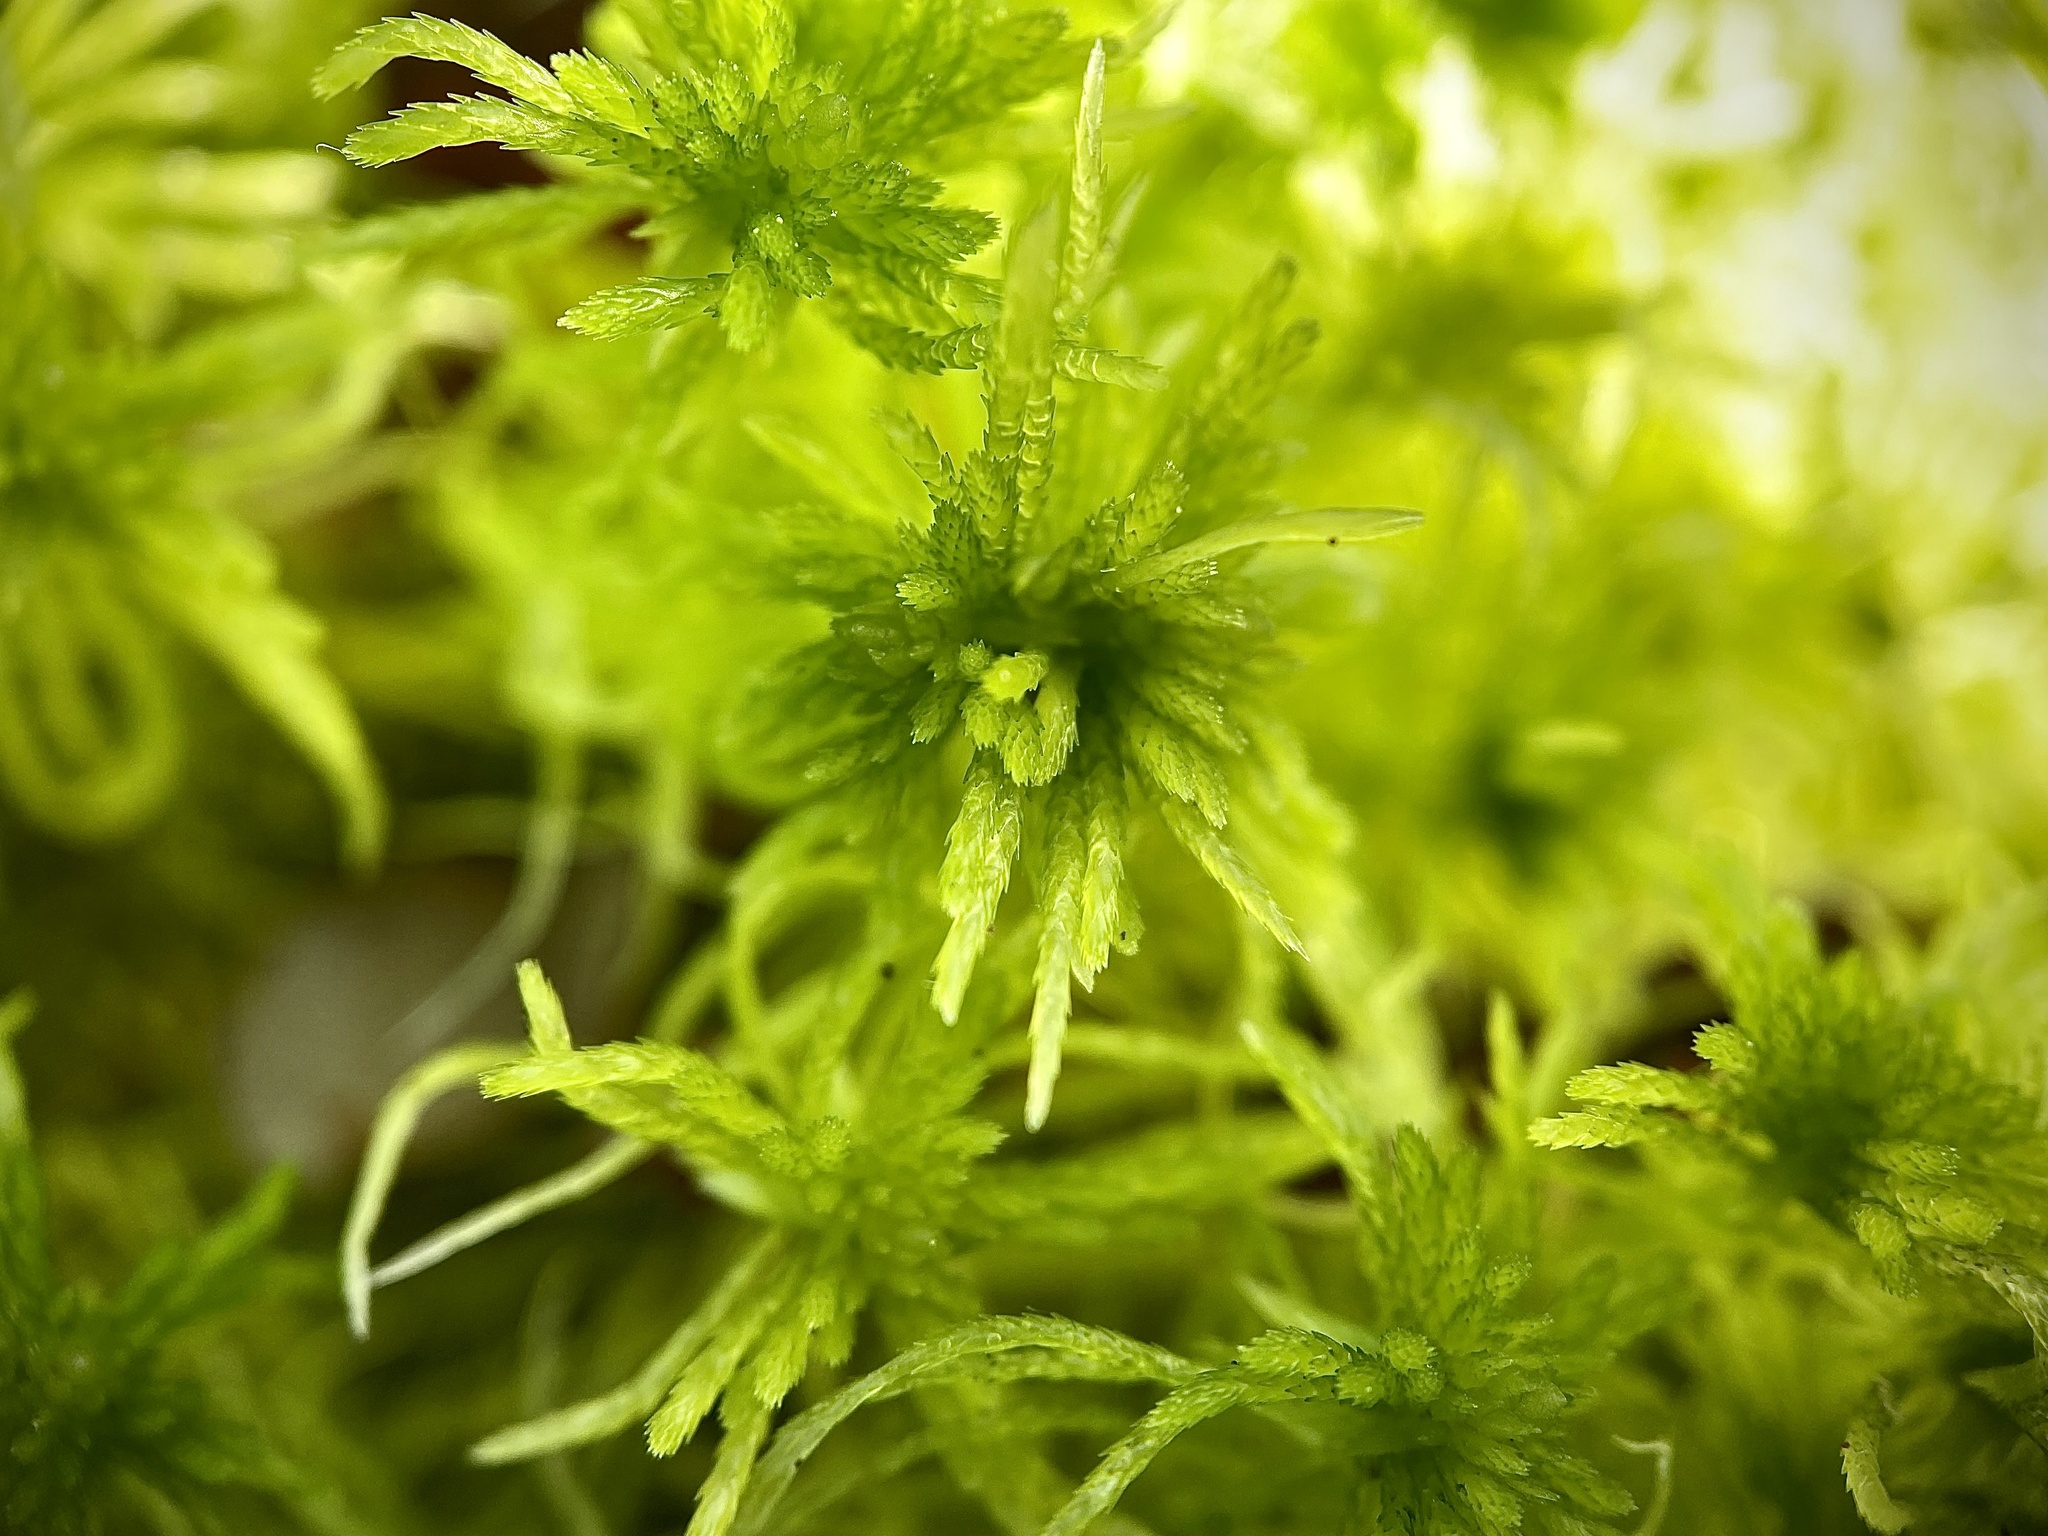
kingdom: Plantae
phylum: Bryophyta
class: Sphagnopsida
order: Sphagnales
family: Sphagnaceae
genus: Sphagnum
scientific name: Sphagnum girgensohnii
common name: Girgensohn's peat moss
